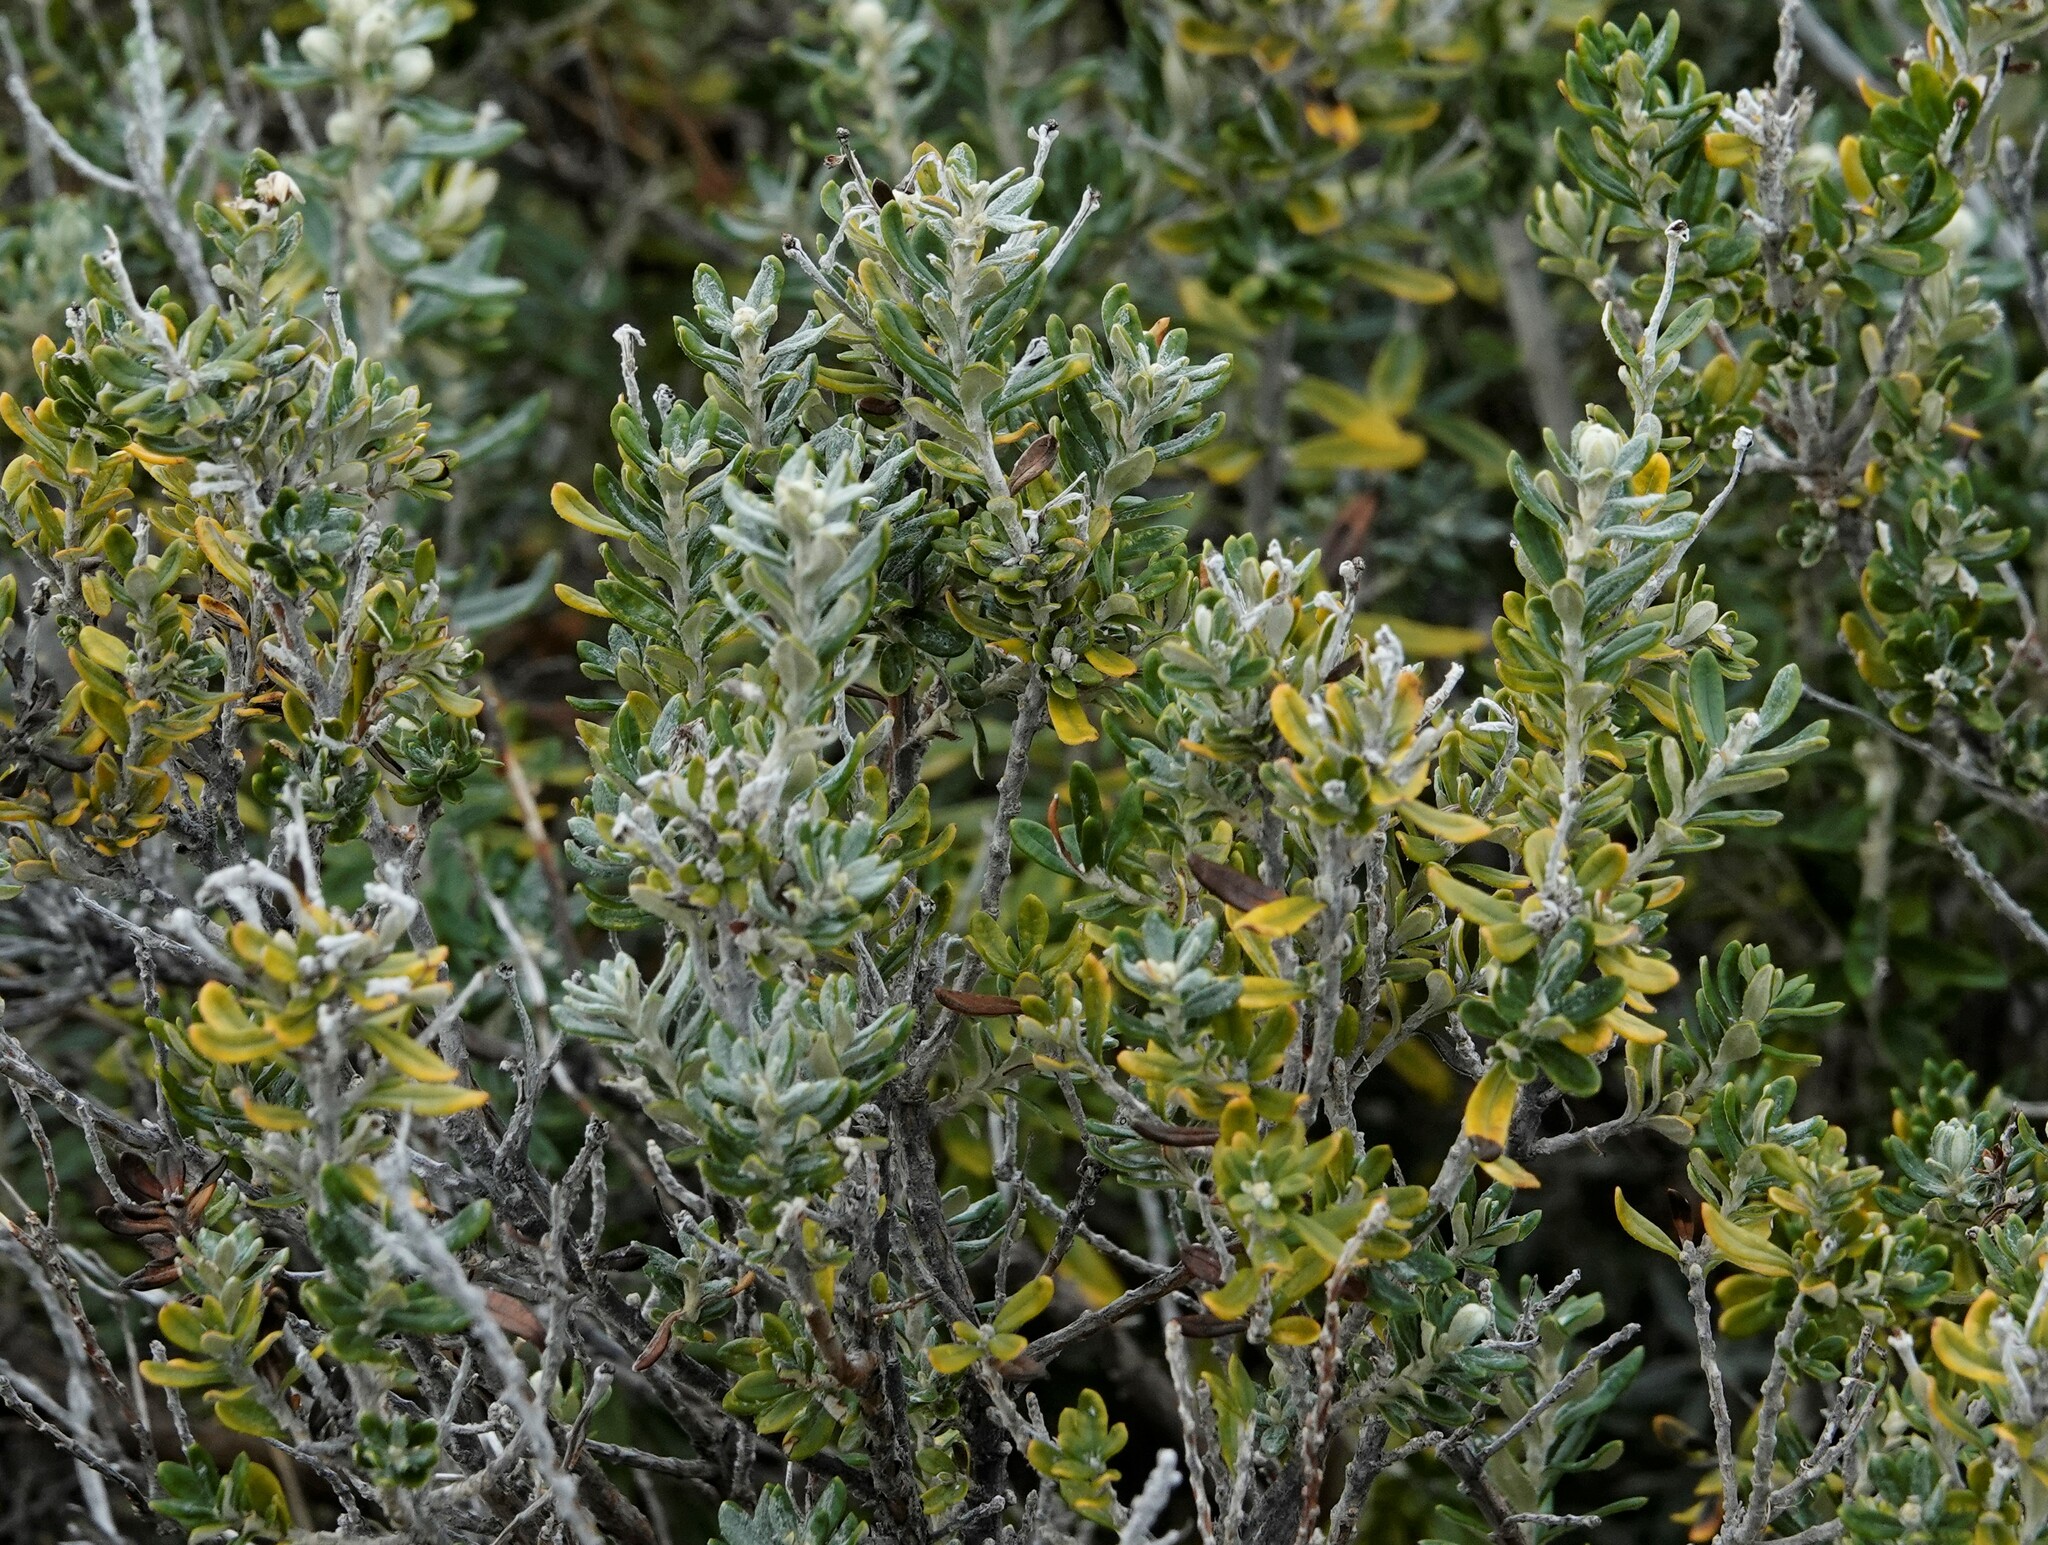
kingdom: Plantae
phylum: Tracheophyta
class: Magnoliopsida
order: Asterales
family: Asteraceae
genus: Chiliotrichum
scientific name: Chiliotrichum diffusum
